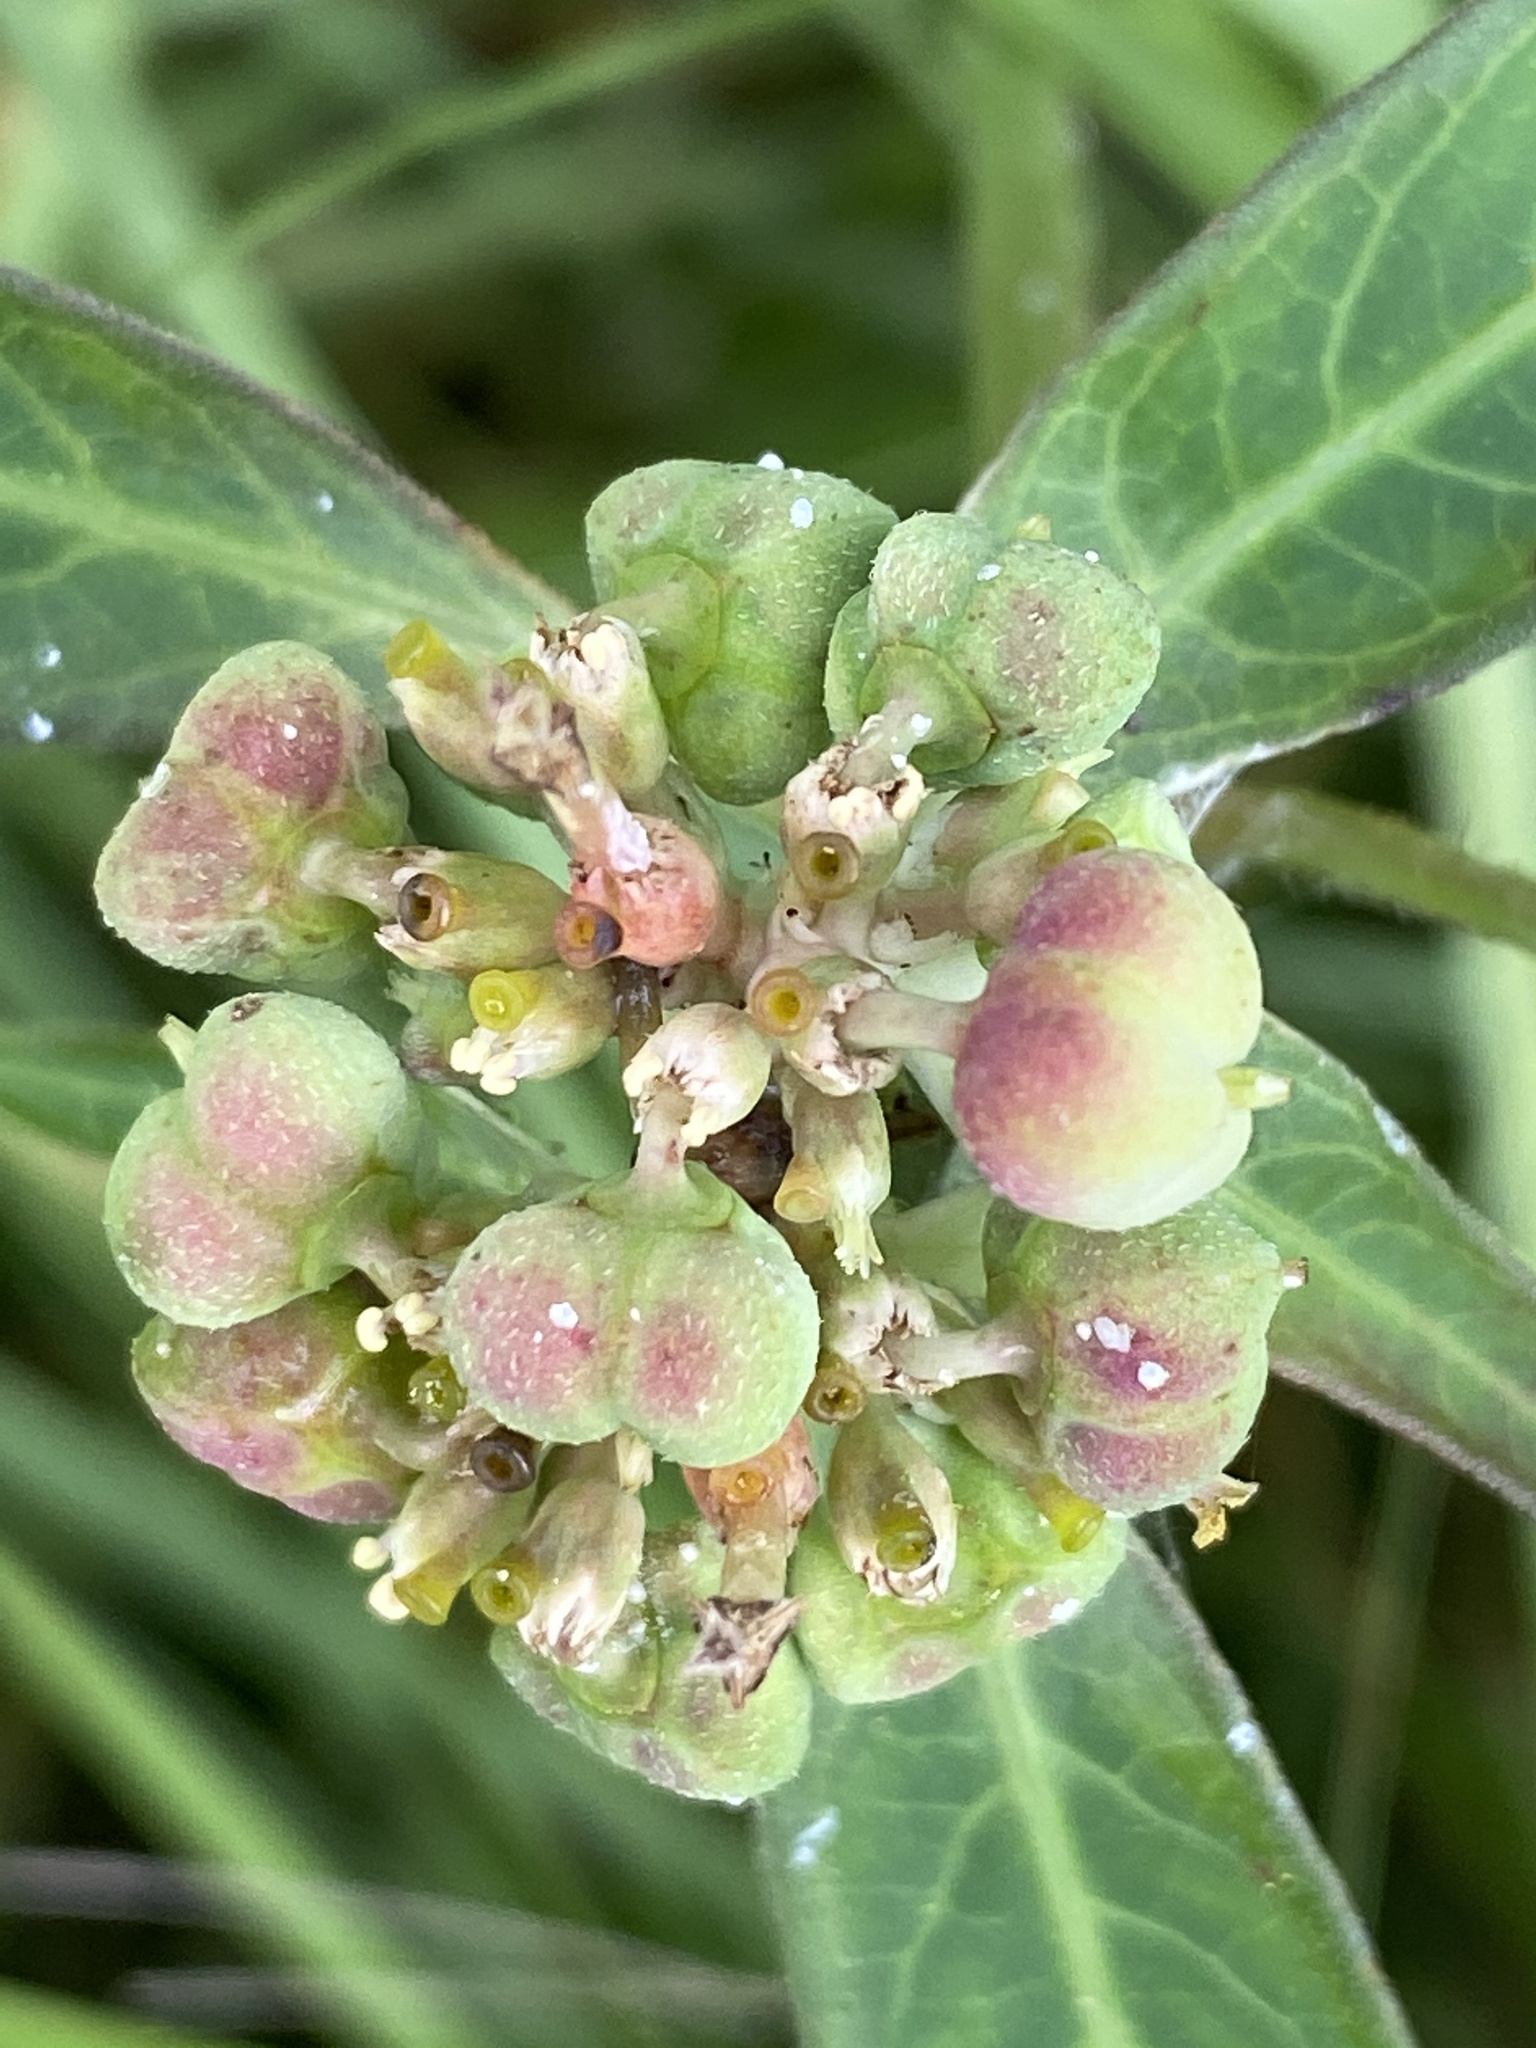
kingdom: Plantae
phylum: Tracheophyta
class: Magnoliopsida
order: Malpighiales
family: Euphorbiaceae
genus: Euphorbia
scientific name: Euphorbia heterophylla
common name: Mexican fireplant
